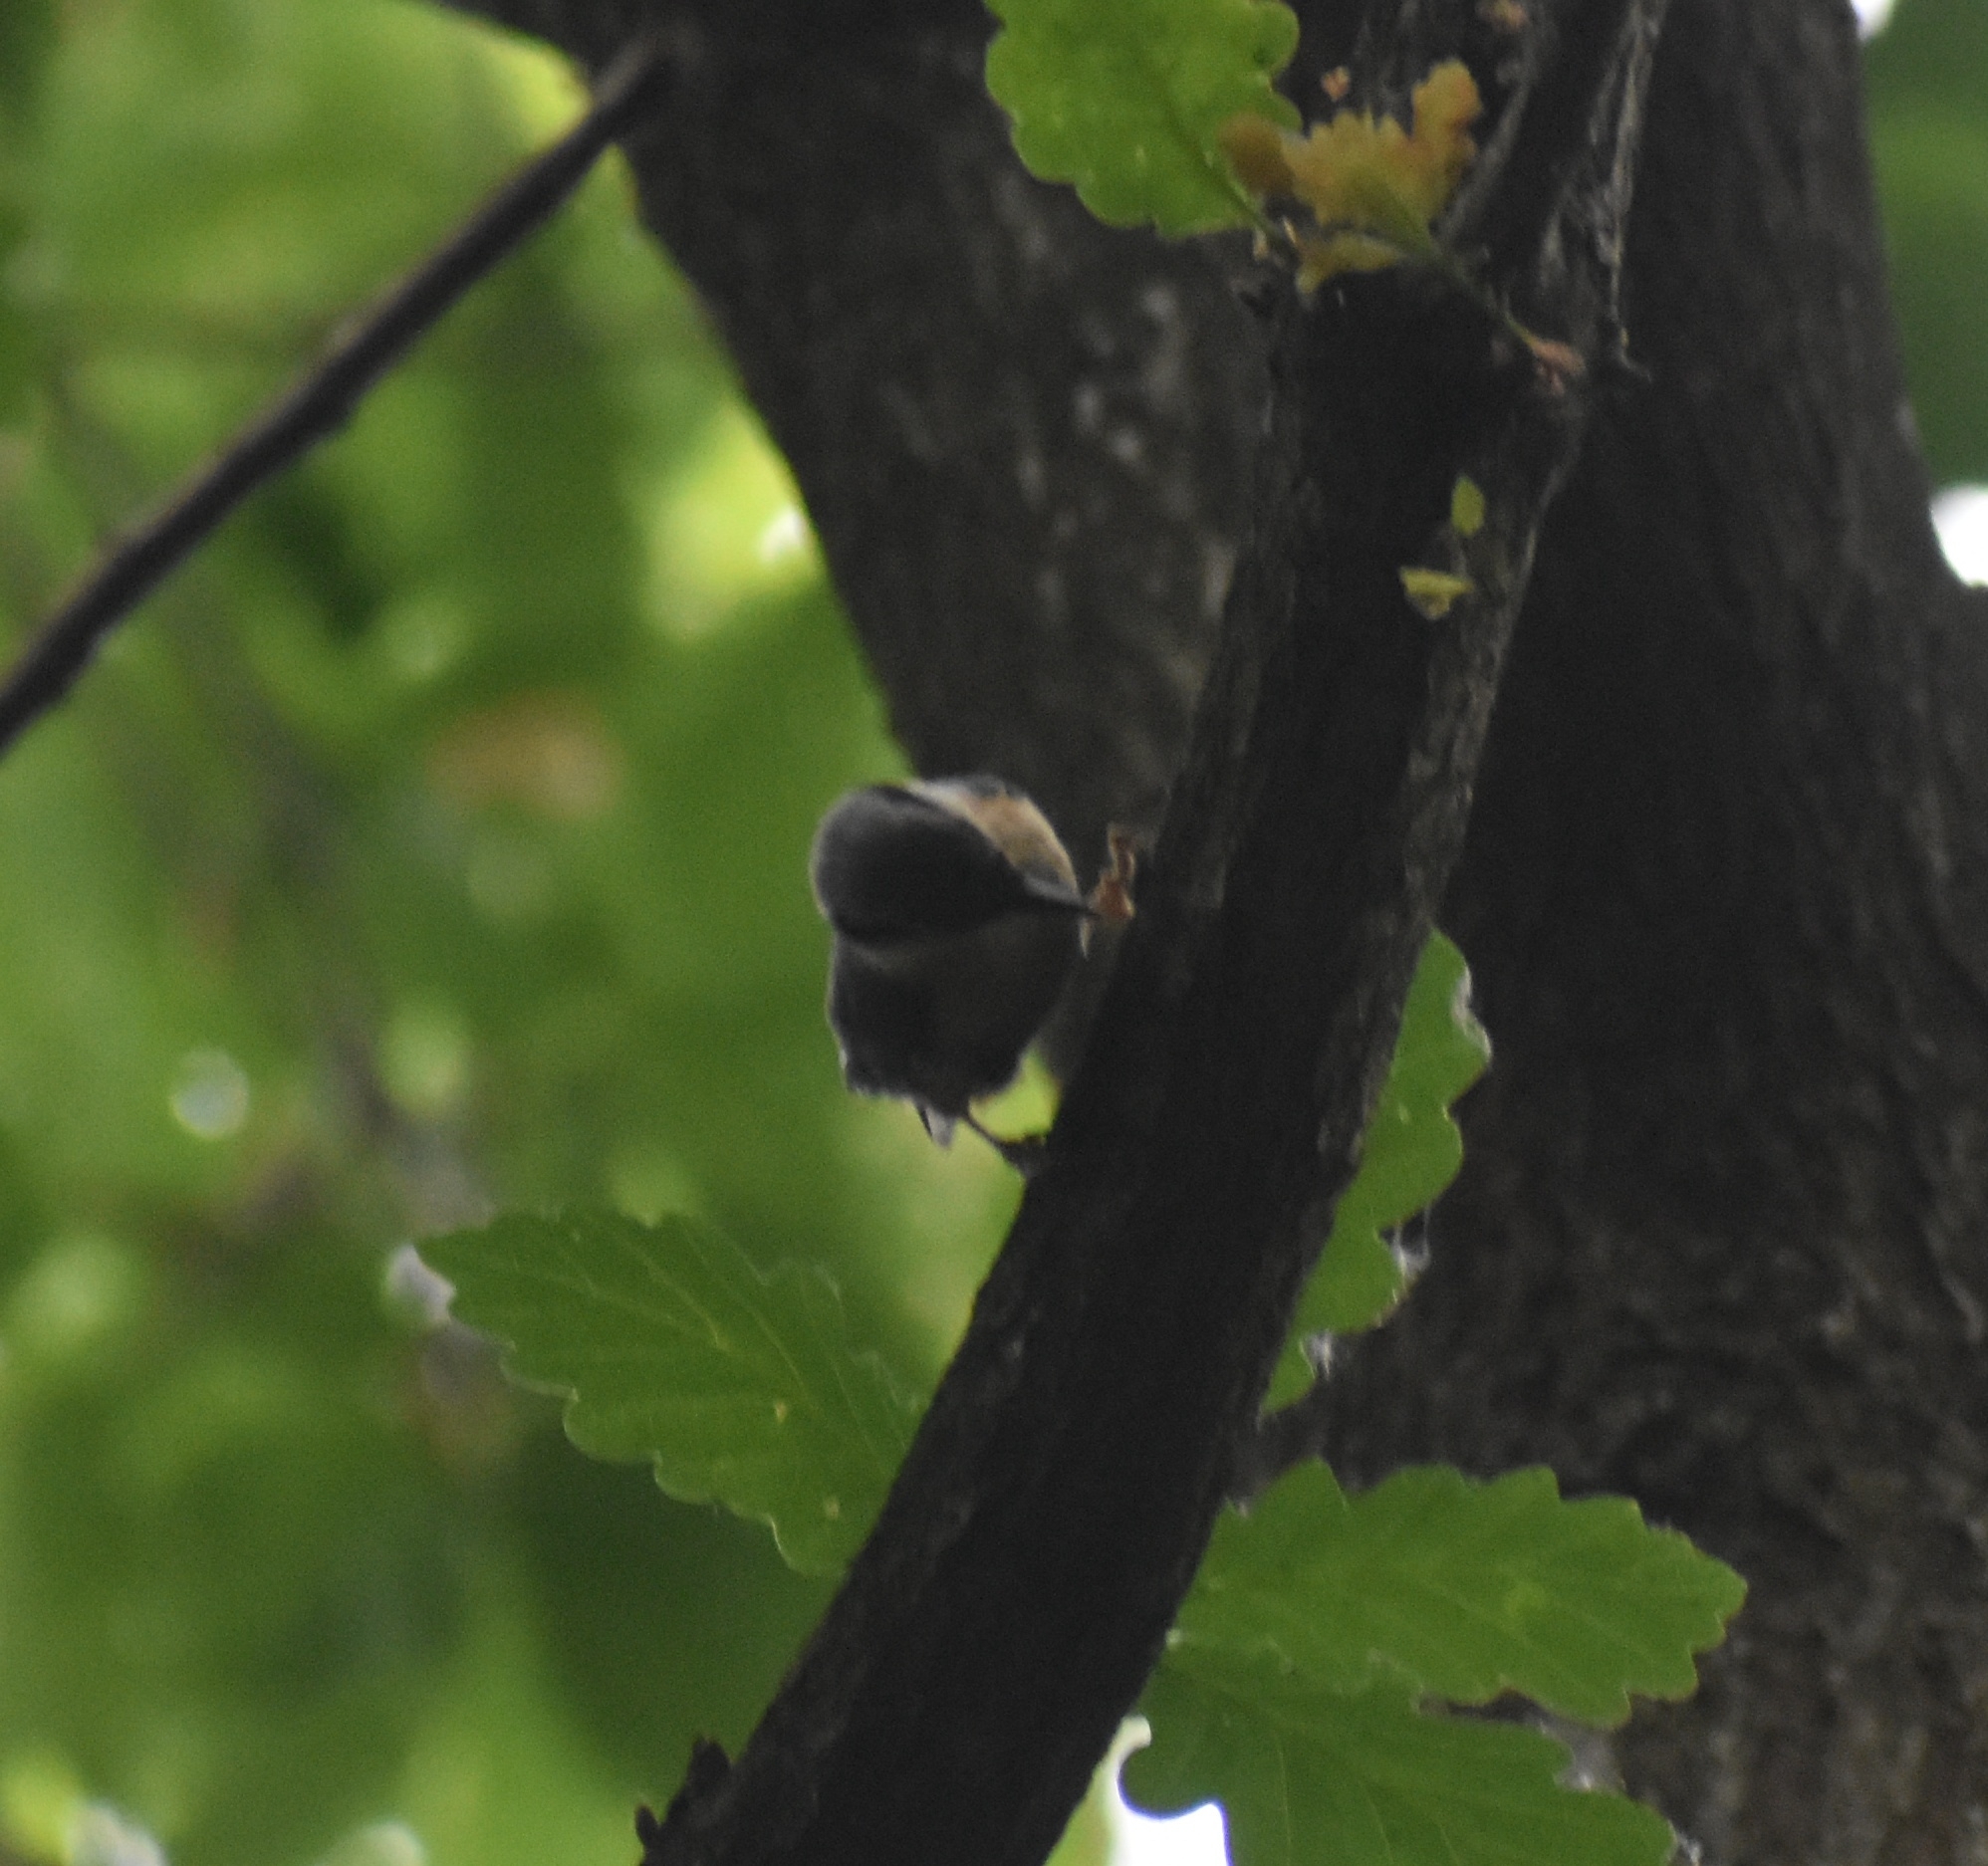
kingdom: Animalia
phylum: Chordata
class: Aves
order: Passeriformes
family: Sittidae
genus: Sitta
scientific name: Sitta europaea
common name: Eurasian nuthatch
